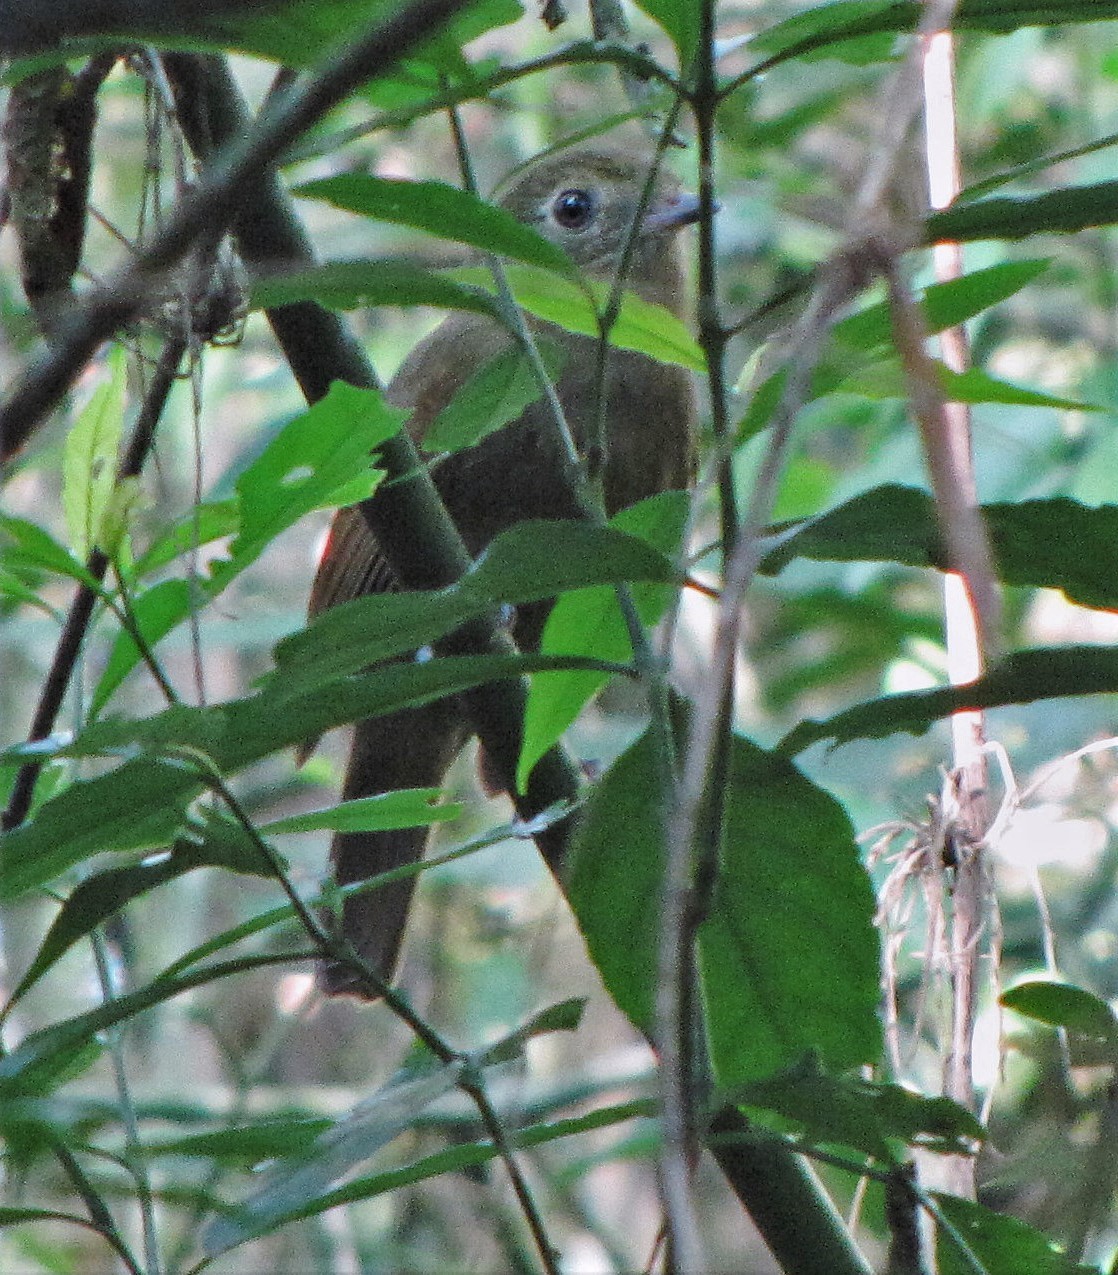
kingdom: Animalia
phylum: Chordata
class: Aves
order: Passeriformes
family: Cotingidae
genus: Schiffornis
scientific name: Schiffornis virescens
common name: Greenish schiffornis
